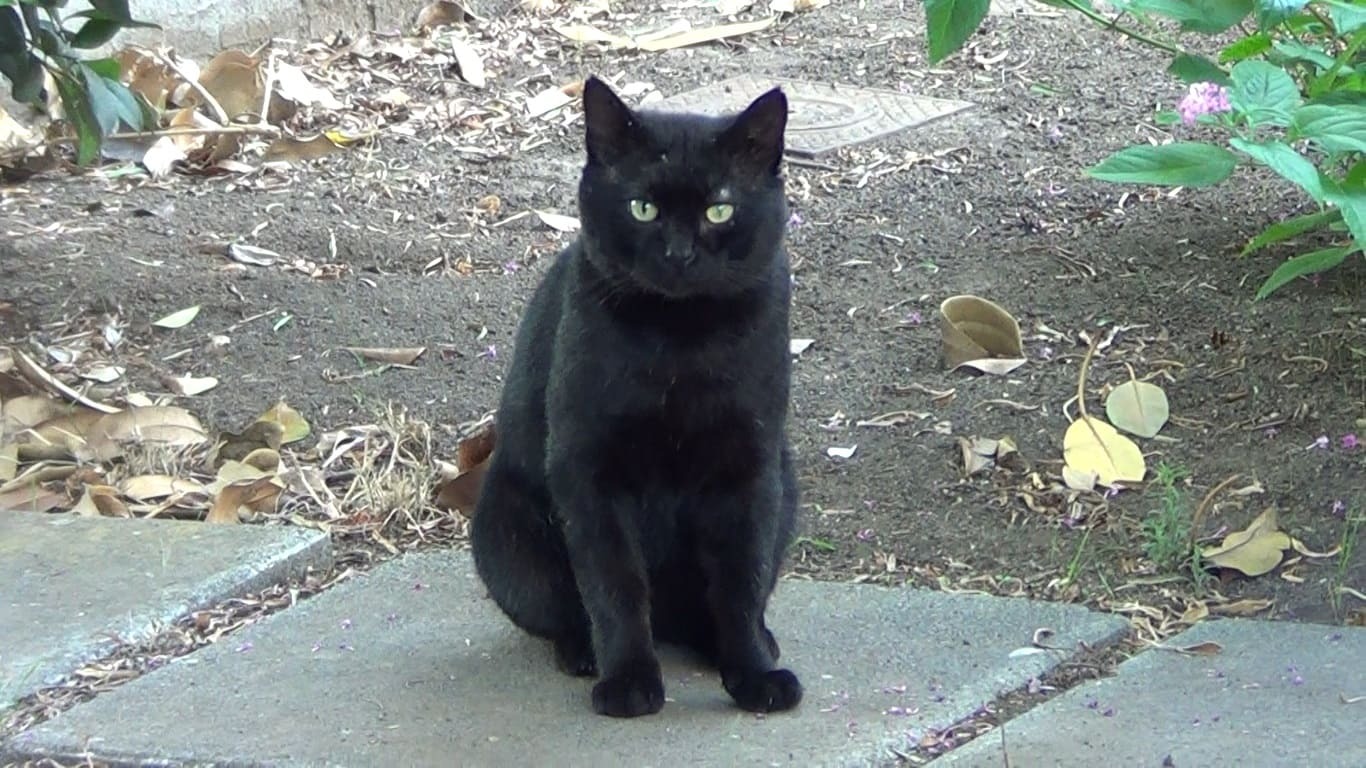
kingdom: Animalia
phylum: Chordata
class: Mammalia
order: Carnivora
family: Felidae
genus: Felis
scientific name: Felis catus
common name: Domestic cat
